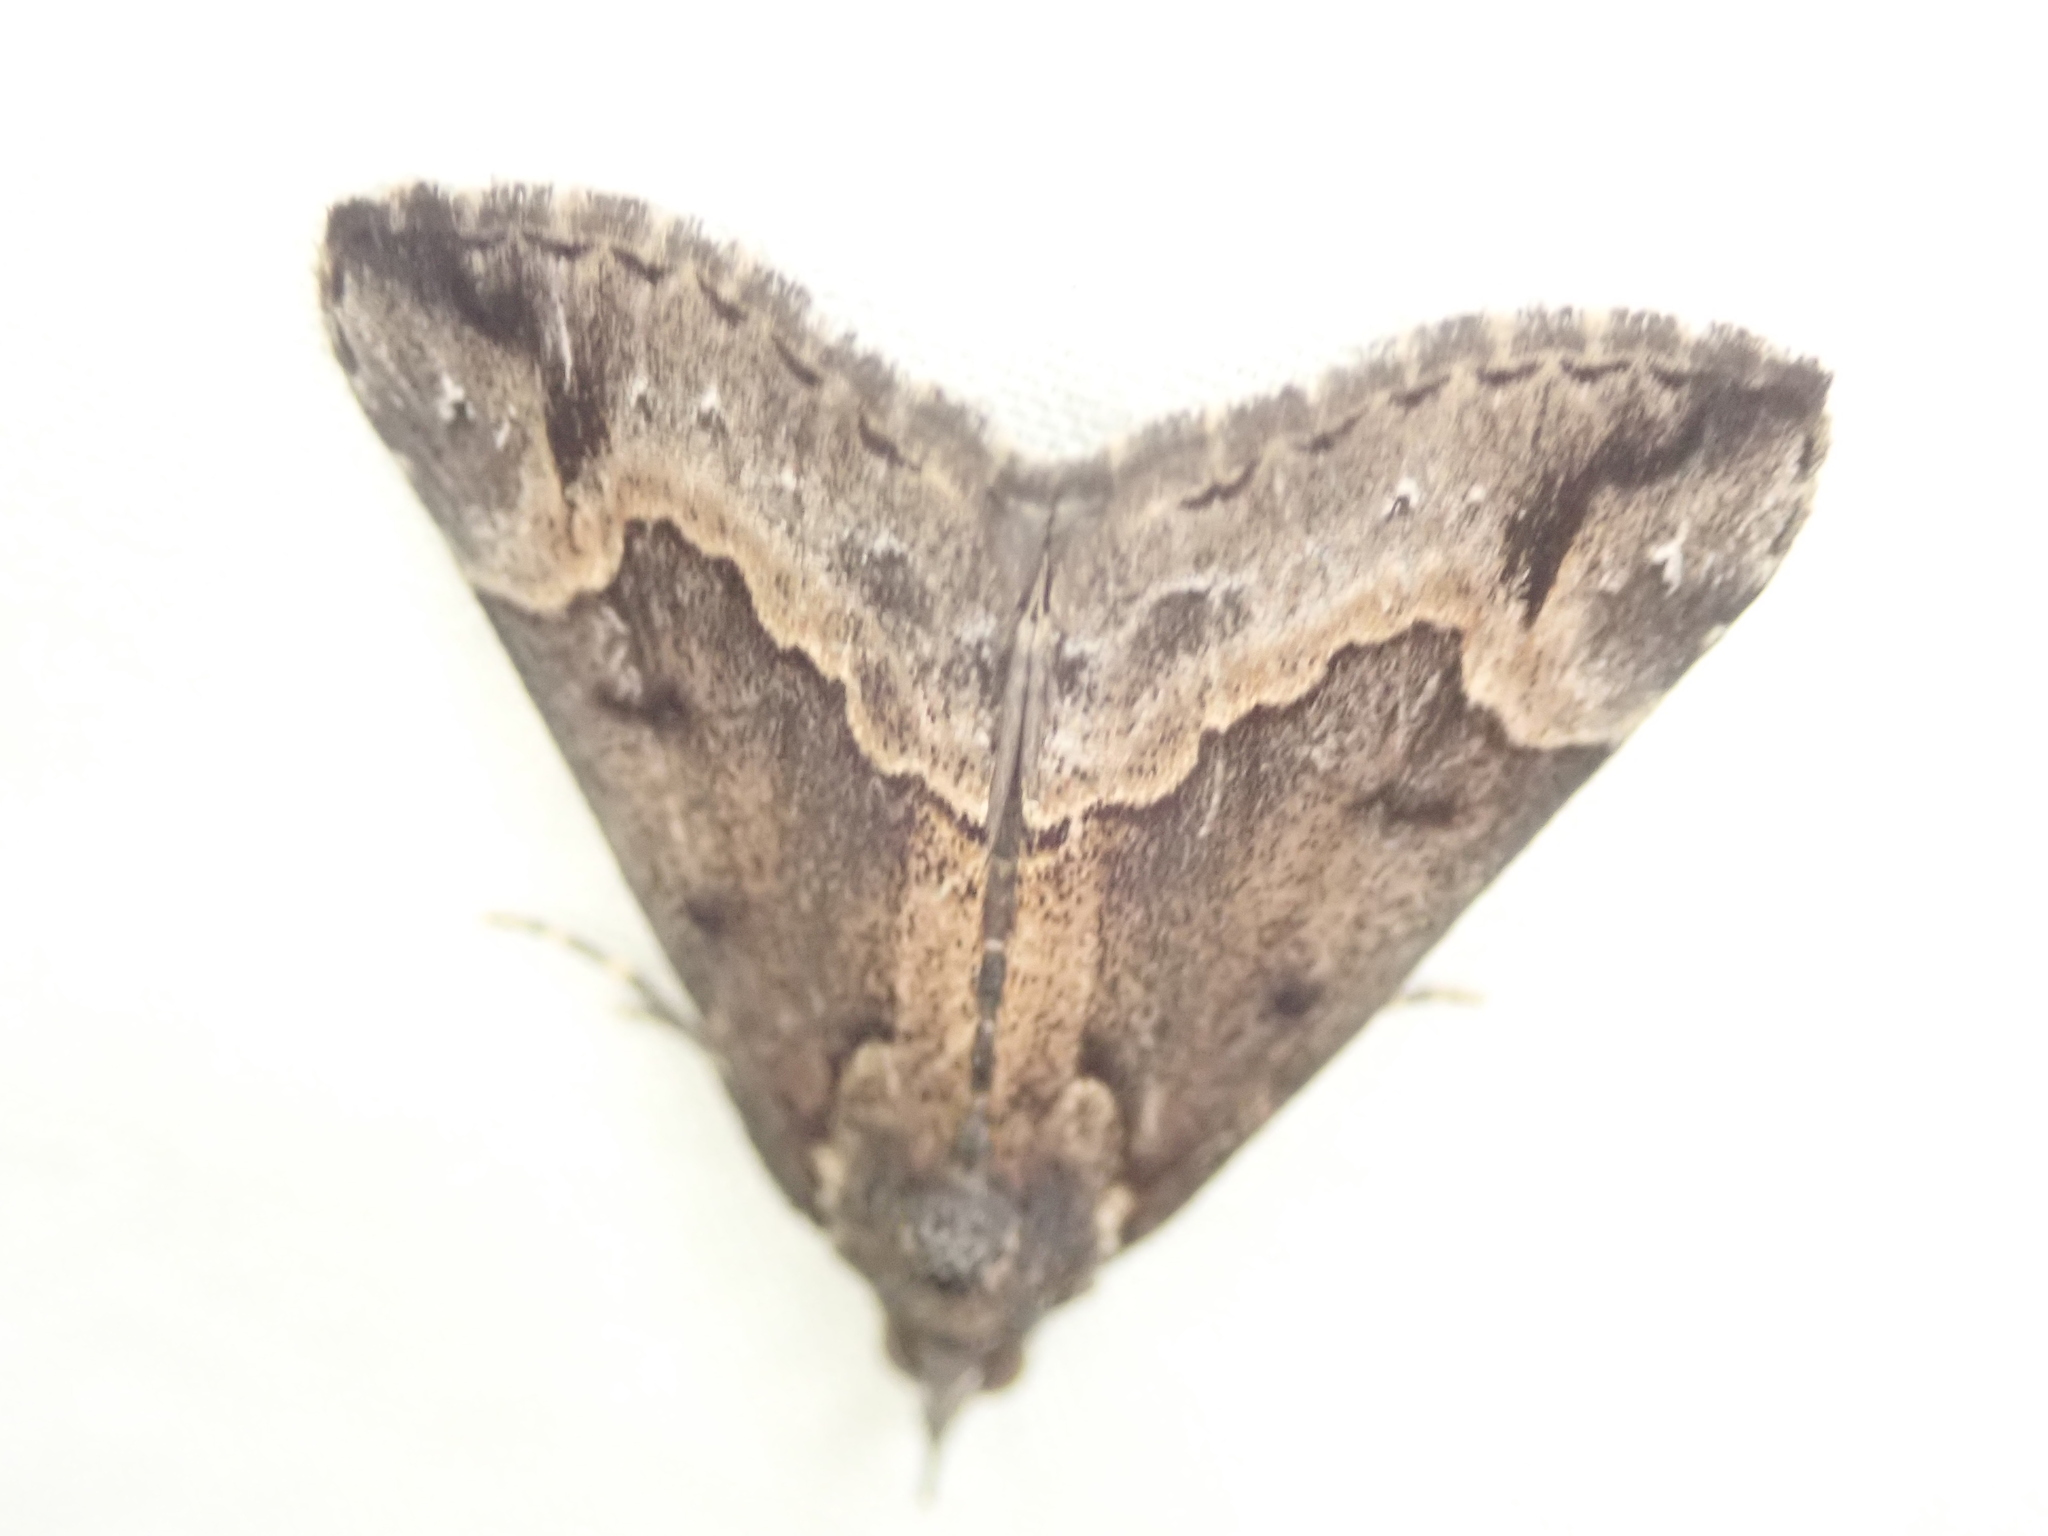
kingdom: Animalia
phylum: Arthropoda
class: Insecta
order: Lepidoptera
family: Erebidae
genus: Hypena
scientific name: Hypena baltimoralis
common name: Baltimore snout
